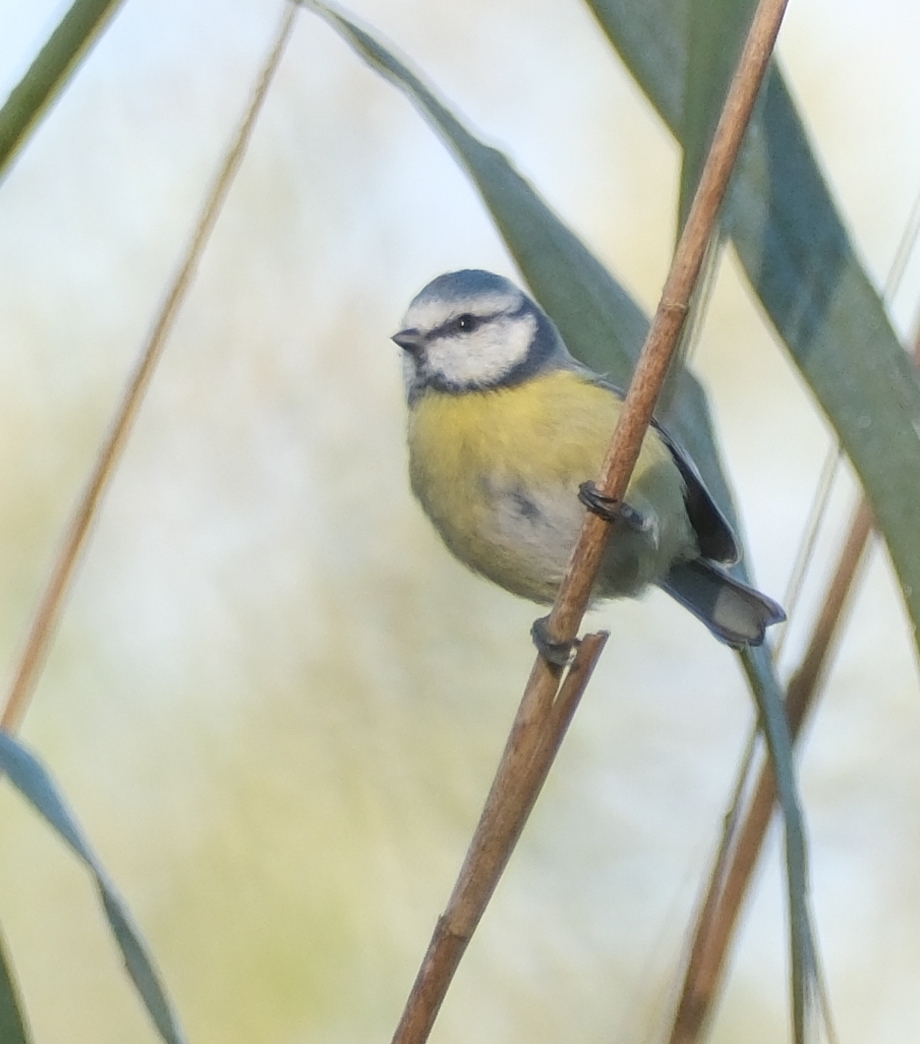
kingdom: Animalia
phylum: Chordata
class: Aves
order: Passeriformes
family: Paridae
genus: Cyanistes
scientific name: Cyanistes caeruleus
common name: Eurasian blue tit
